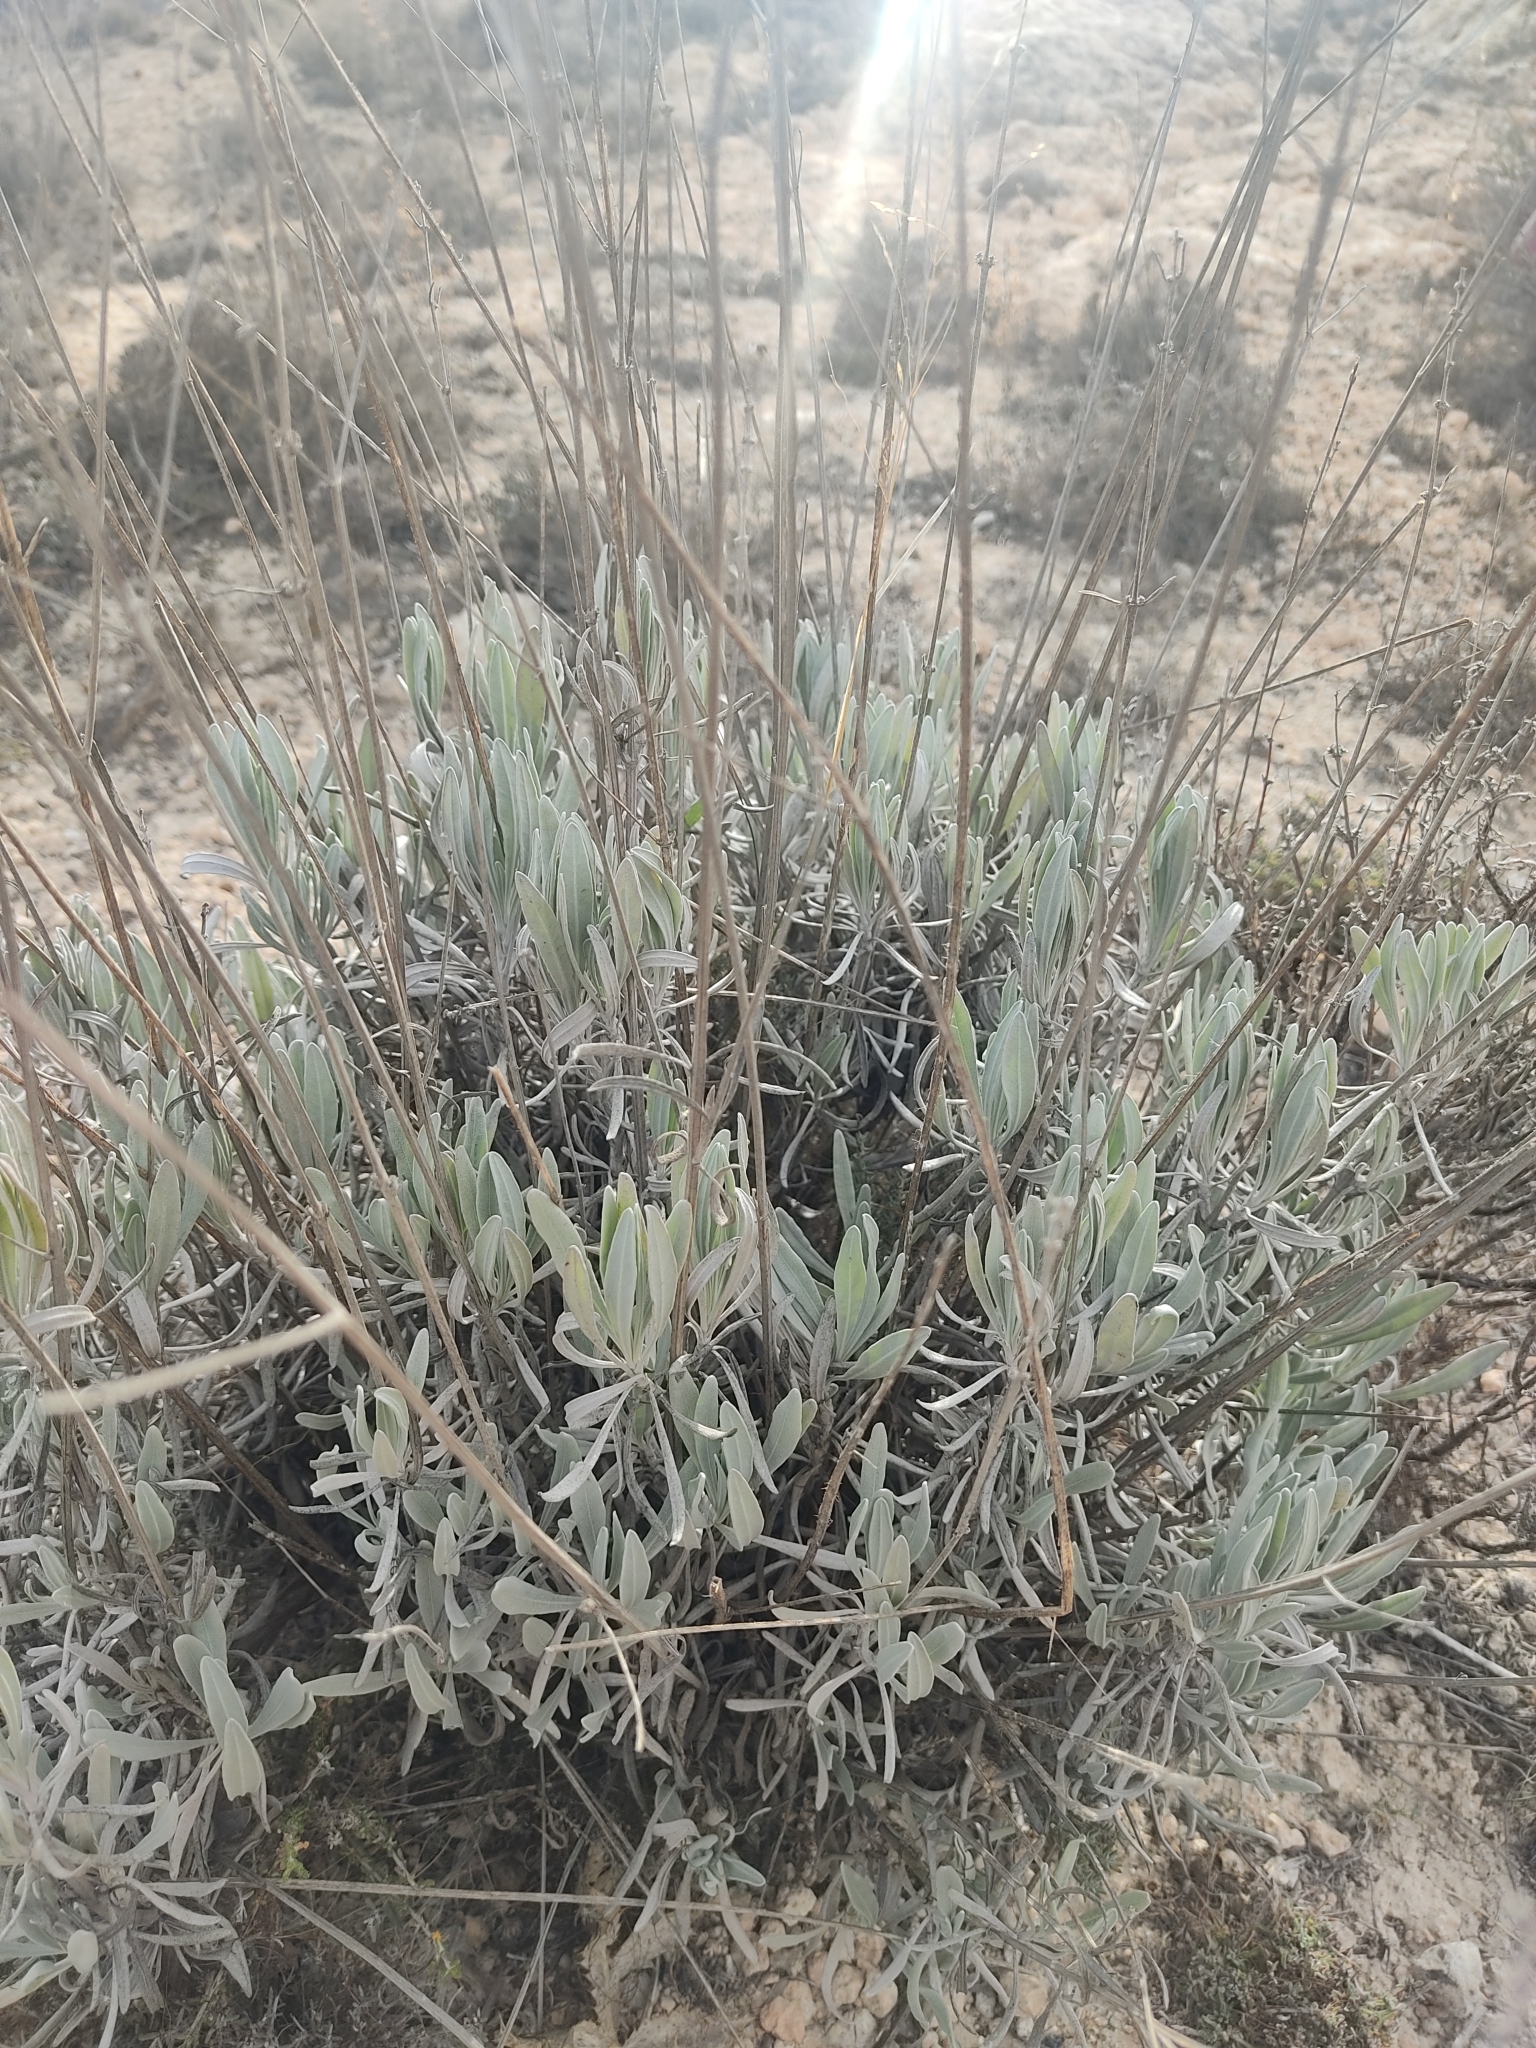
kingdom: Plantae
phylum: Tracheophyta
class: Magnoliopsida
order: Lamiales
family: Lamiaceae
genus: Lavandula
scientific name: Lavandula latifolia
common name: Spike lavendar
